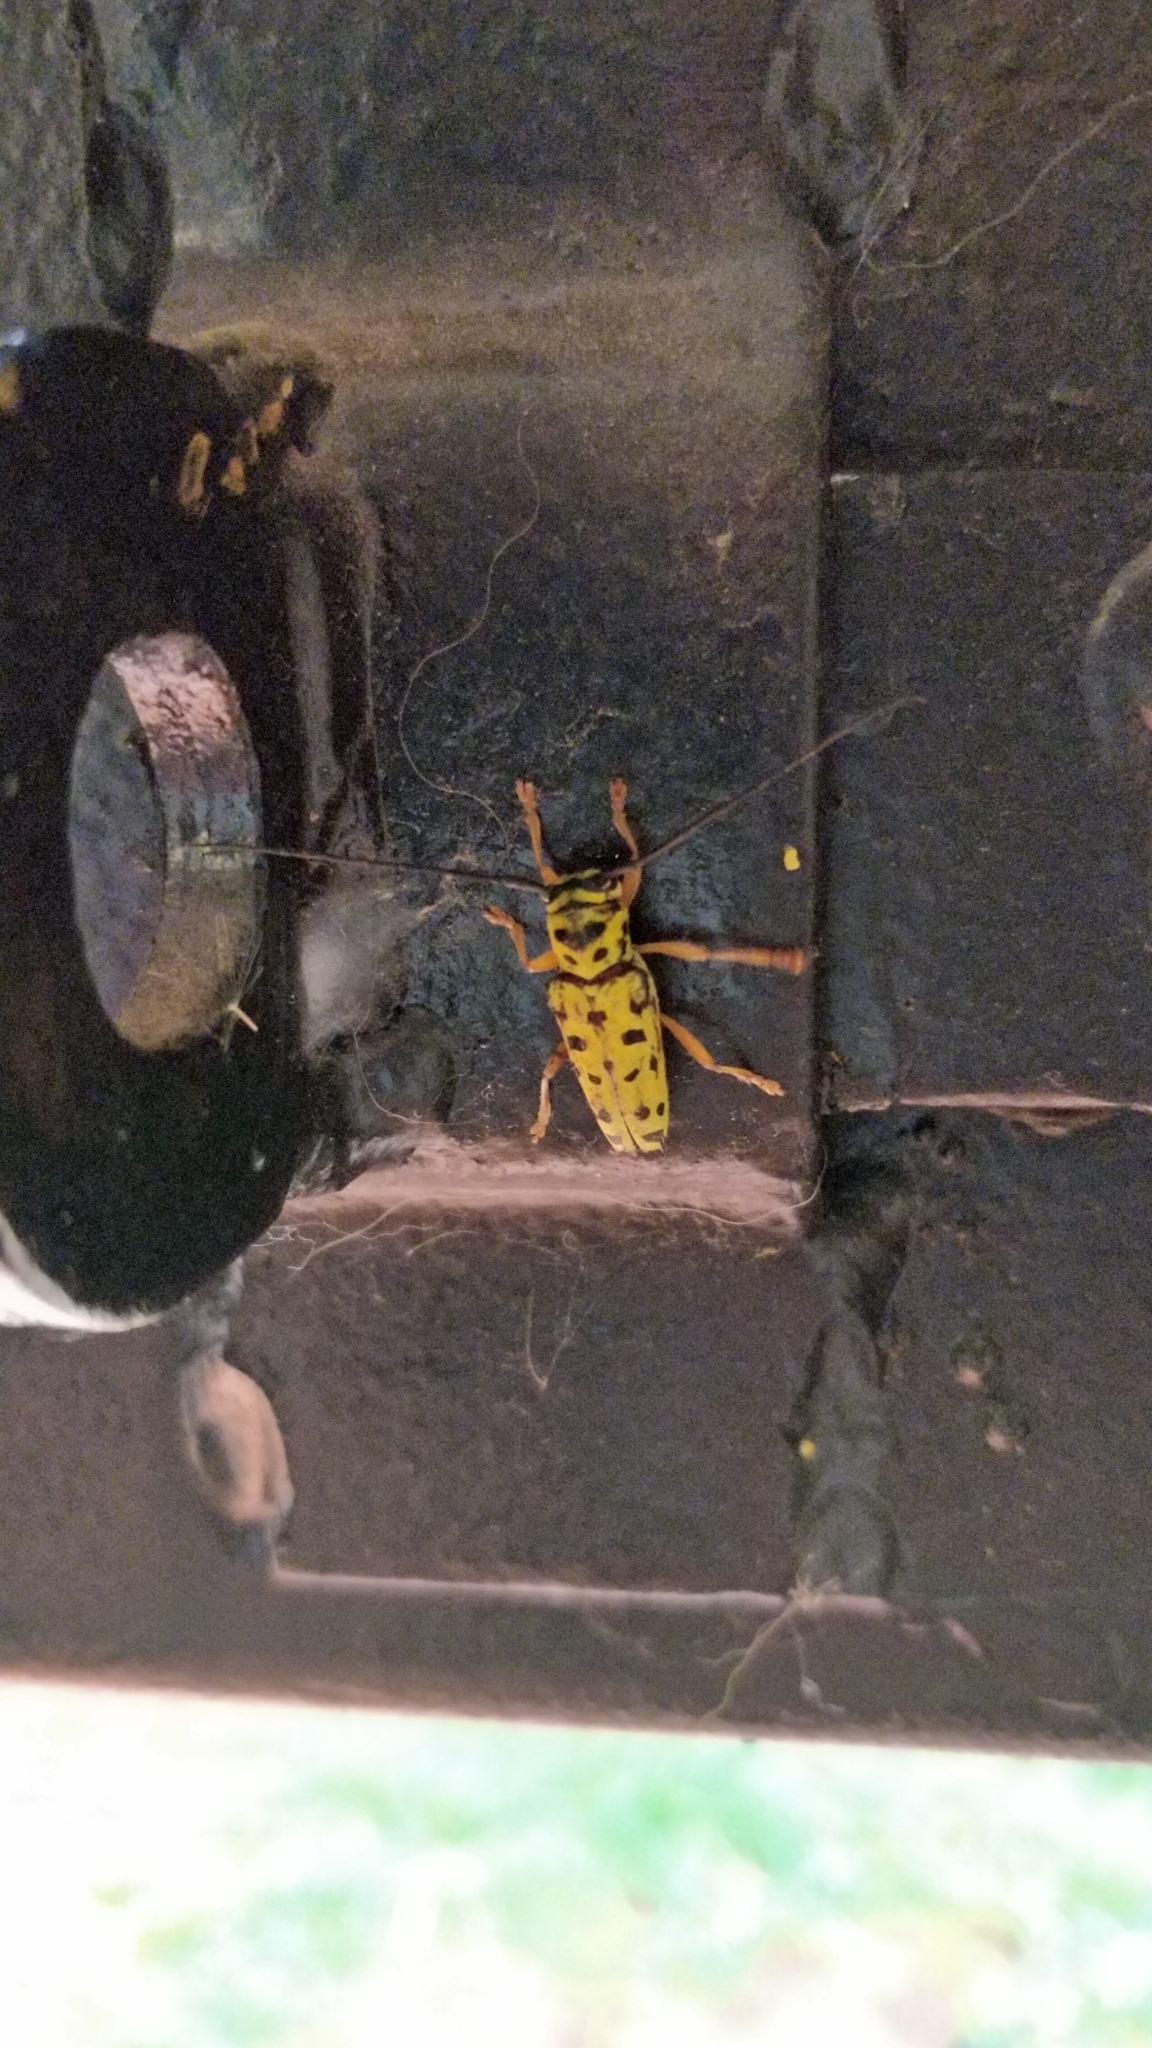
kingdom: Animalia
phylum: Arthropoda
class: Insecta
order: Coleoptera
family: Cerambycidae
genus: Glenea
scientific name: Glenea multiguttata
